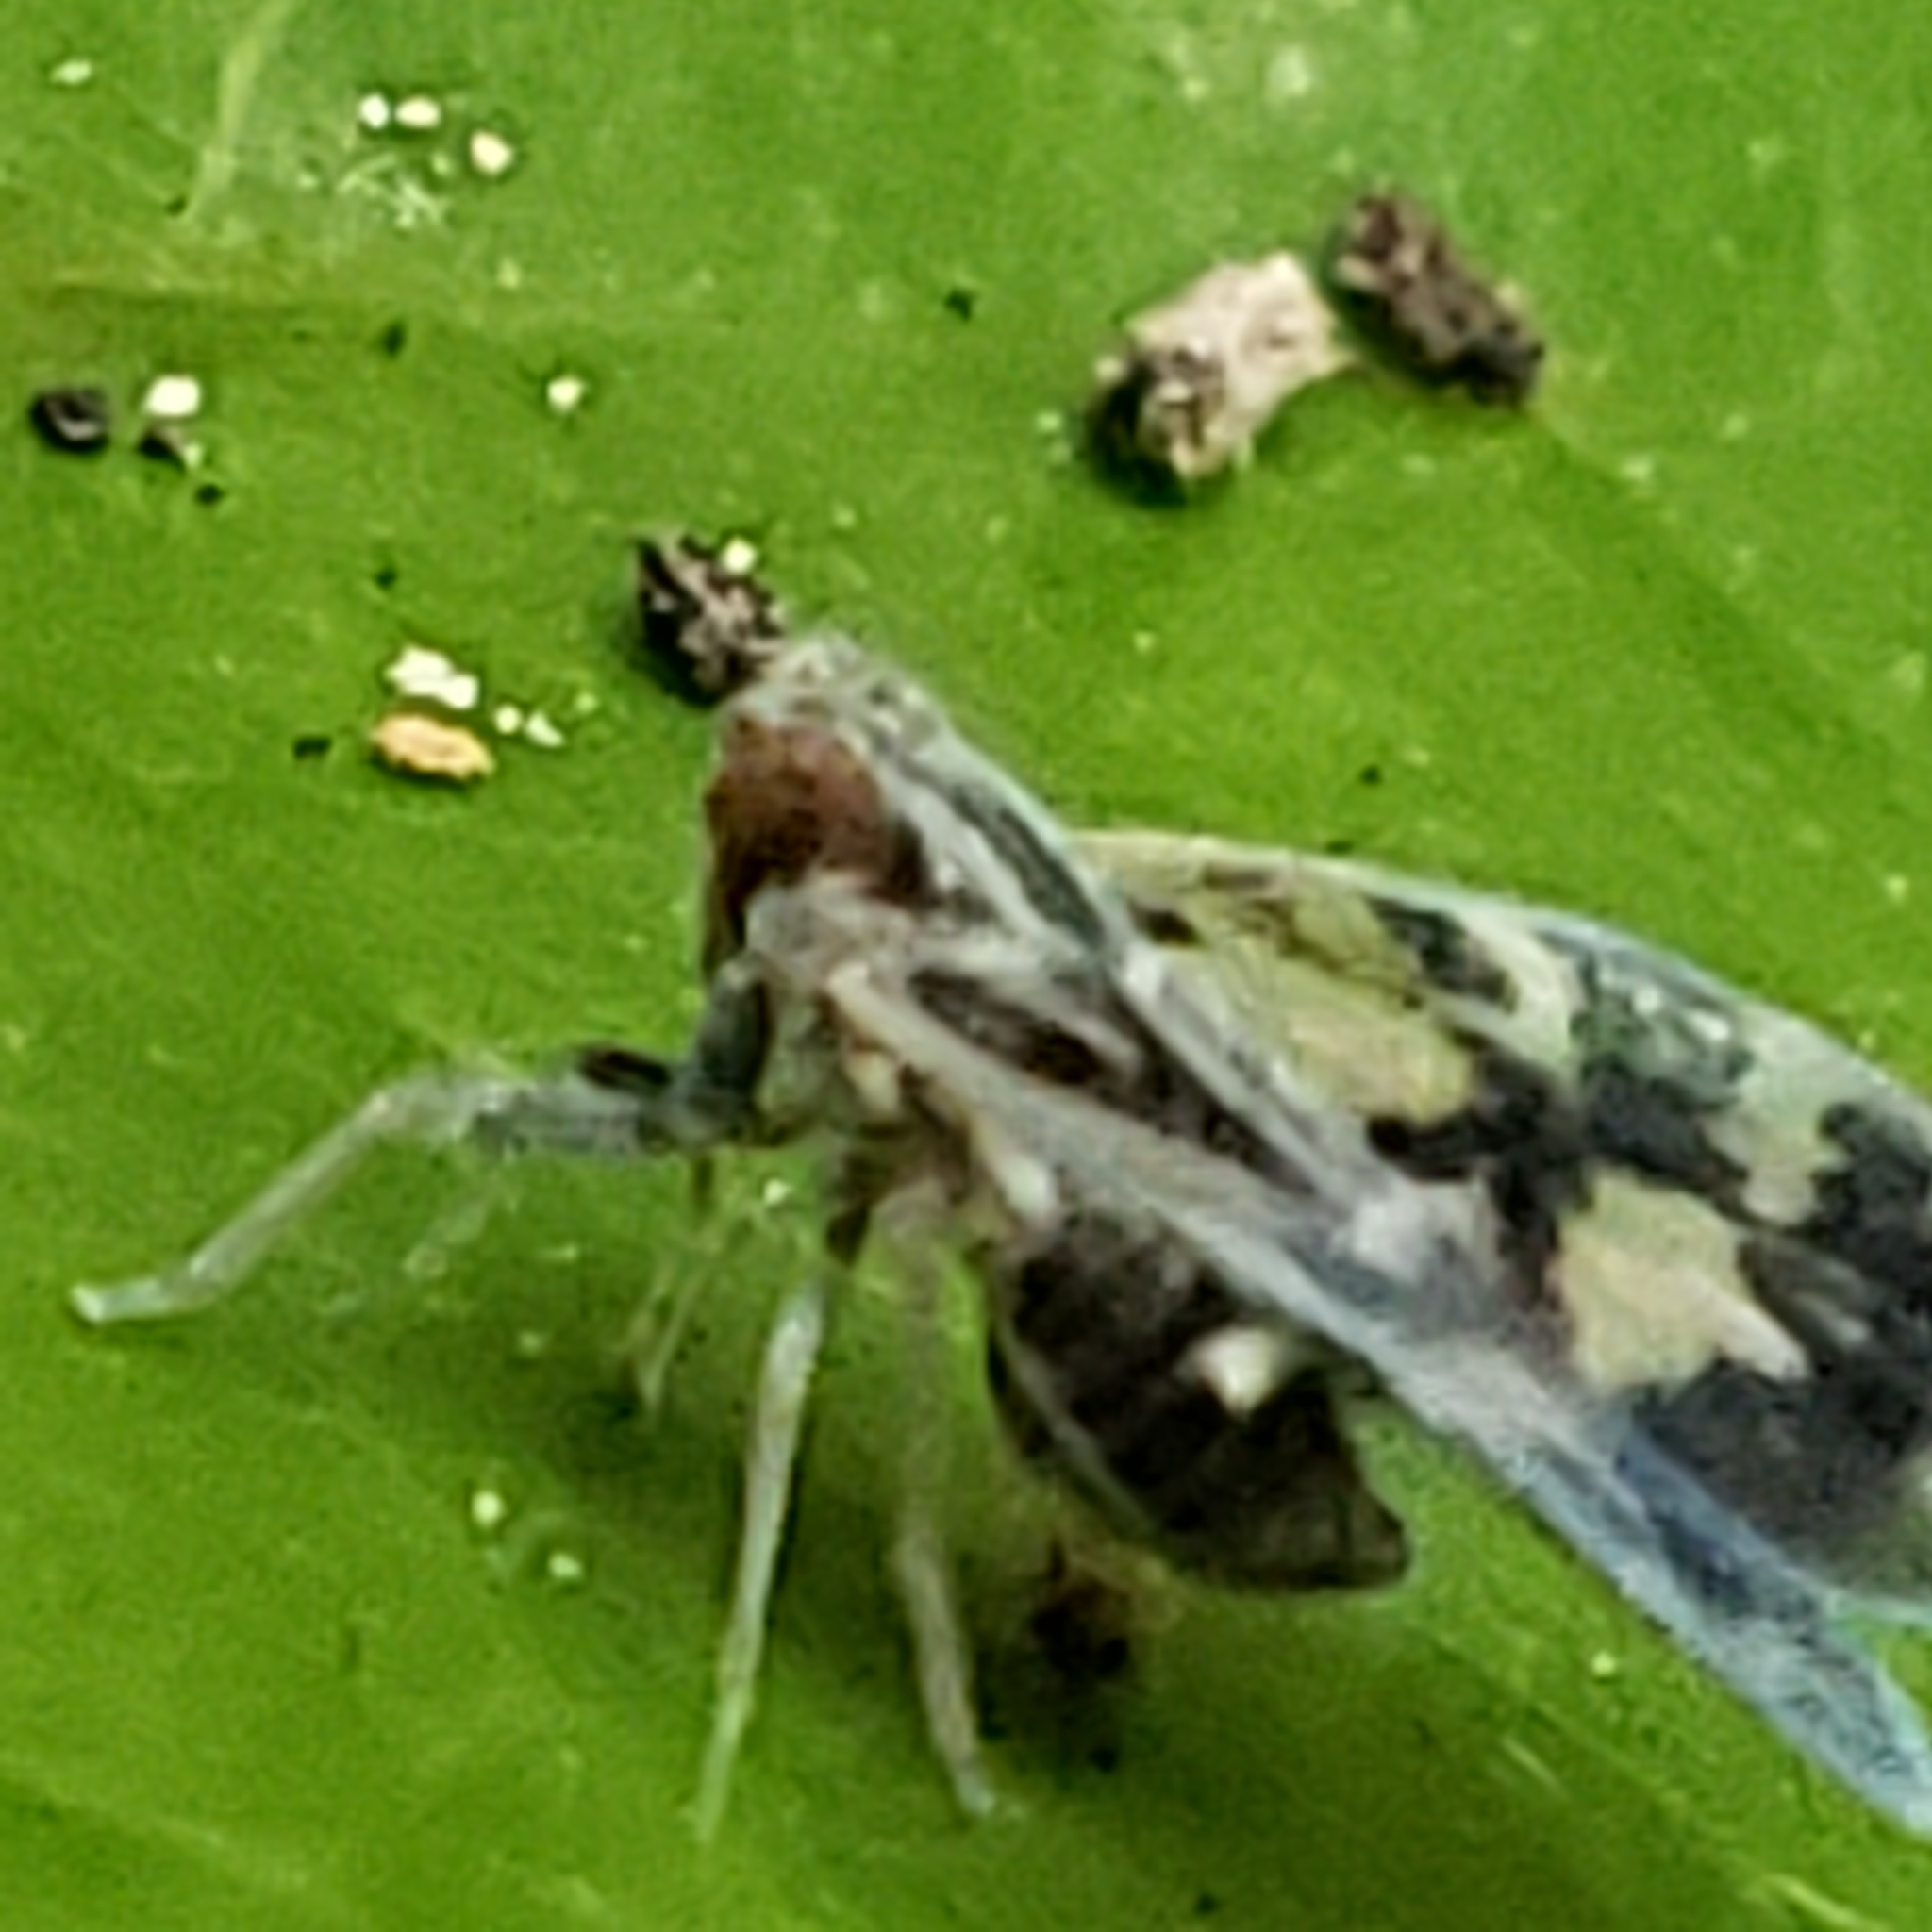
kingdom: Animalia
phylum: Arthropoda
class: Insecta
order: Hemiptera
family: Cixiidae
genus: Bothriocera
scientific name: Bothriocera cognita
